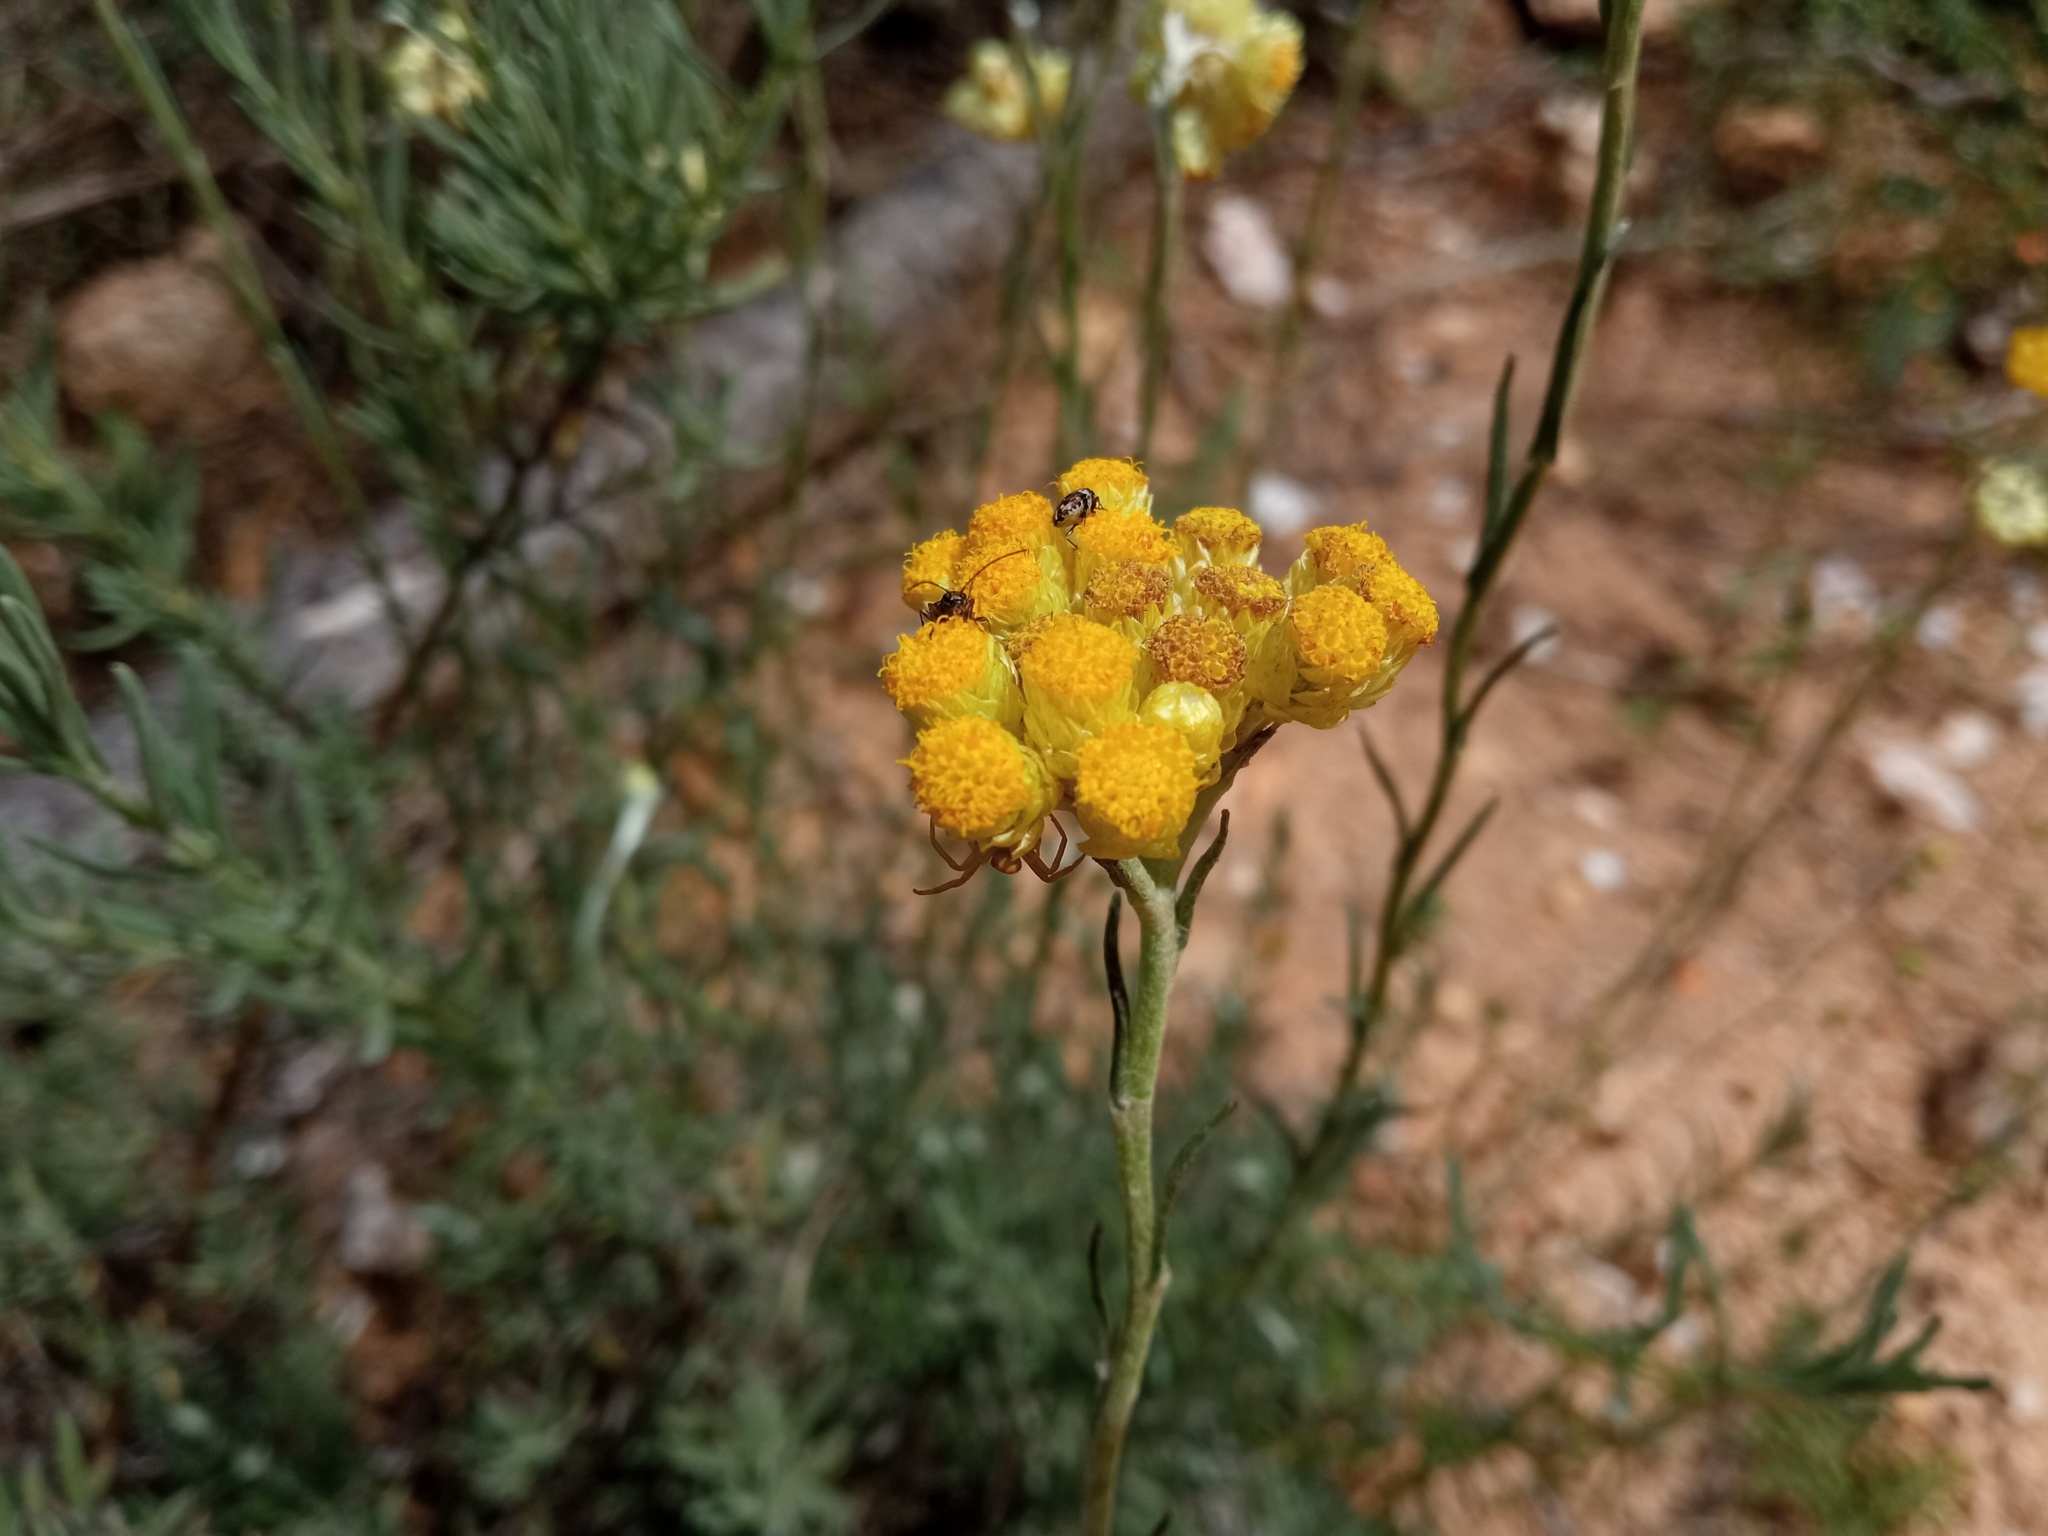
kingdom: Plantae
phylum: Tracheophyta
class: Magnoliopsida
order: Asterales
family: Asteraceae
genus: Helichrysum
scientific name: Helichrysum stoechas
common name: Goldilocks
